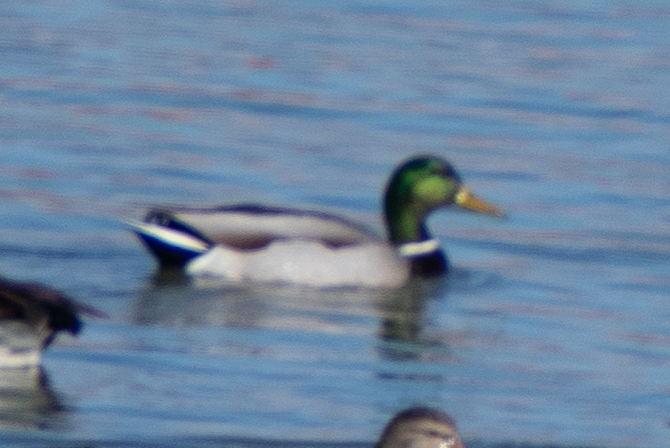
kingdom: Animalia
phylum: Chordata
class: Aves
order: Anseriformes
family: Anatidae
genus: Anas
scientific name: Anas platyrhynchos
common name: Mallard
